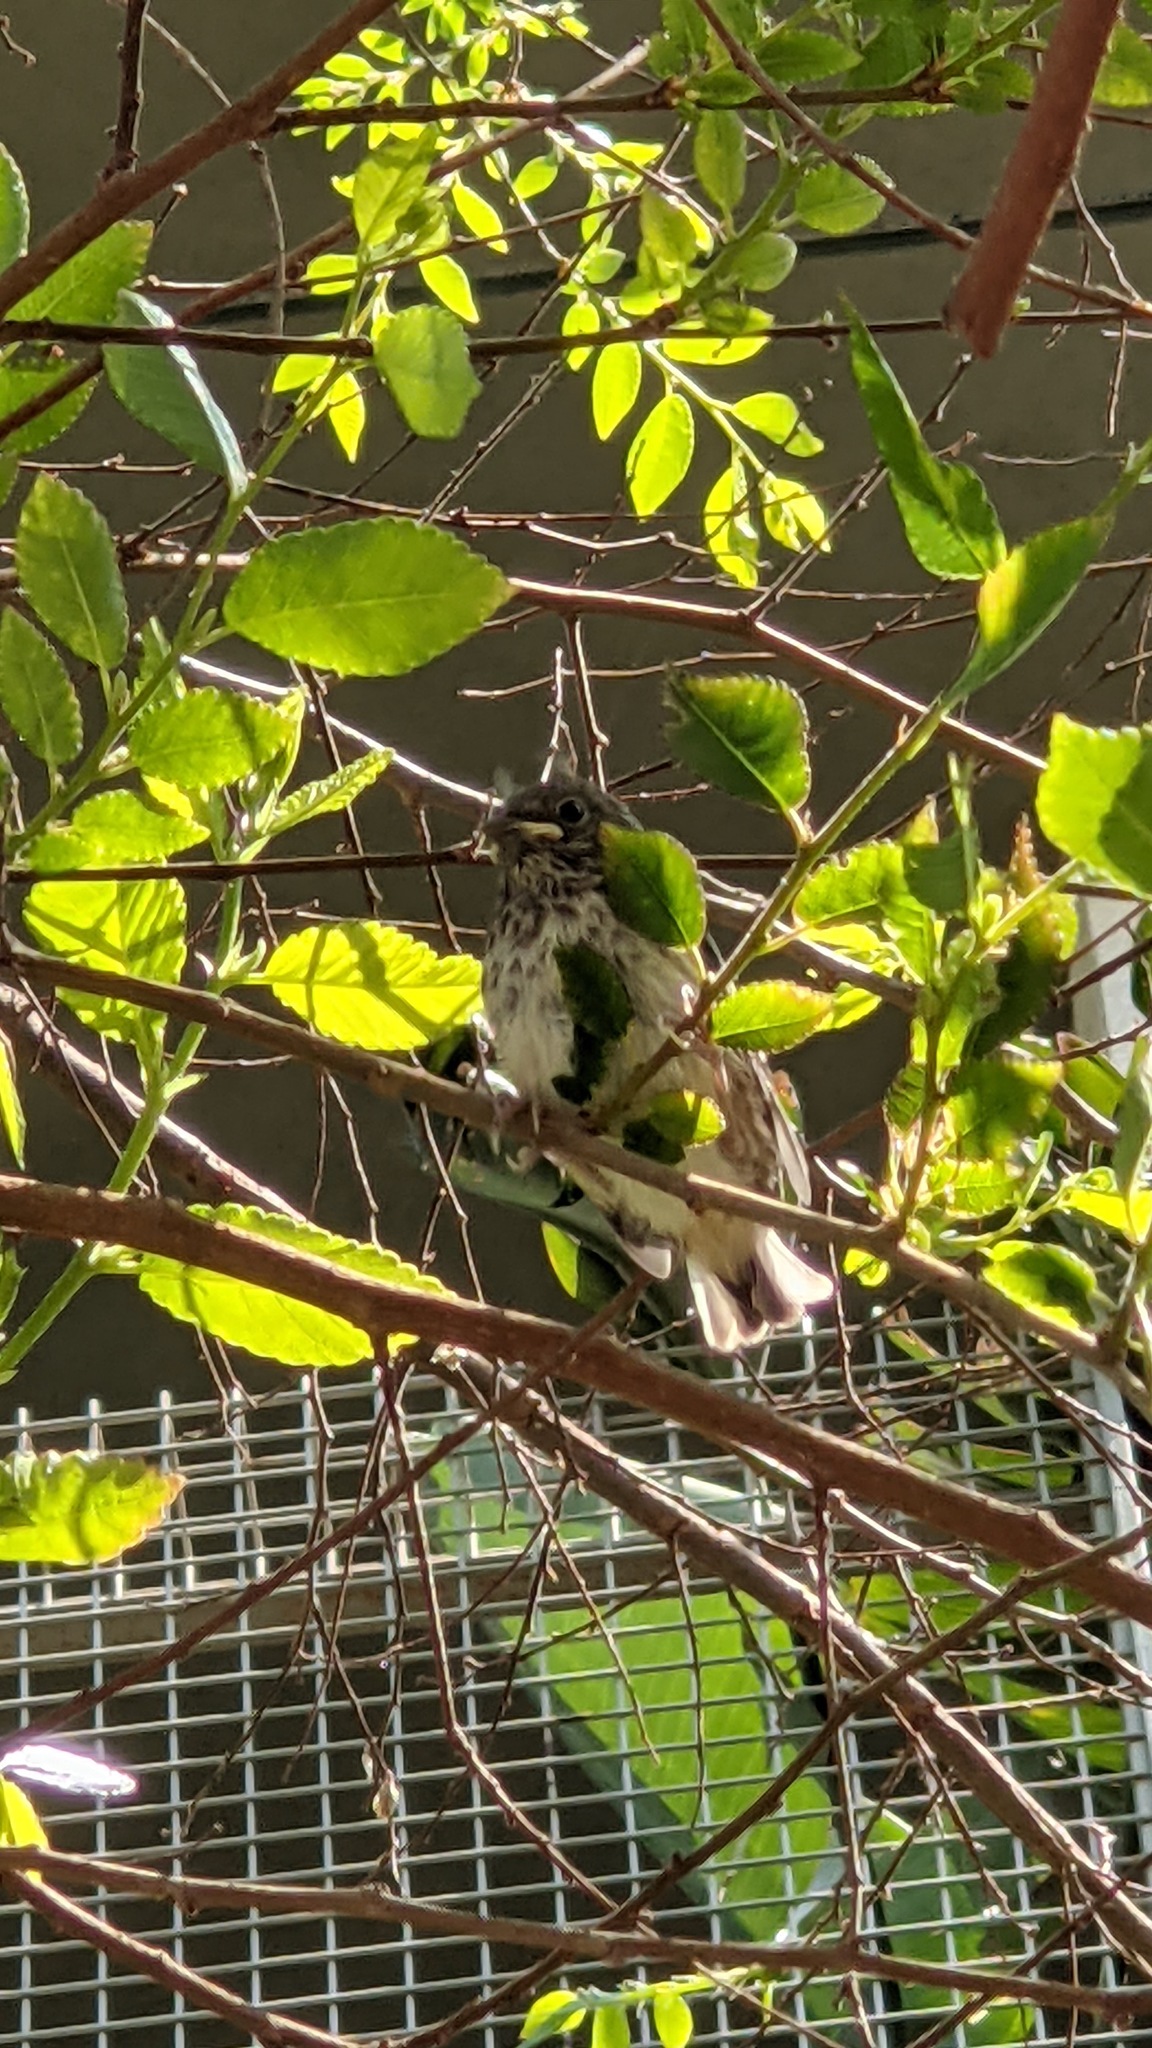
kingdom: Animalia
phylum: Chordata
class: Aves
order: Passeriformes
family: Passerellidae
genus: Junco
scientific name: Junco hyemalis
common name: Dark-eyed junco
